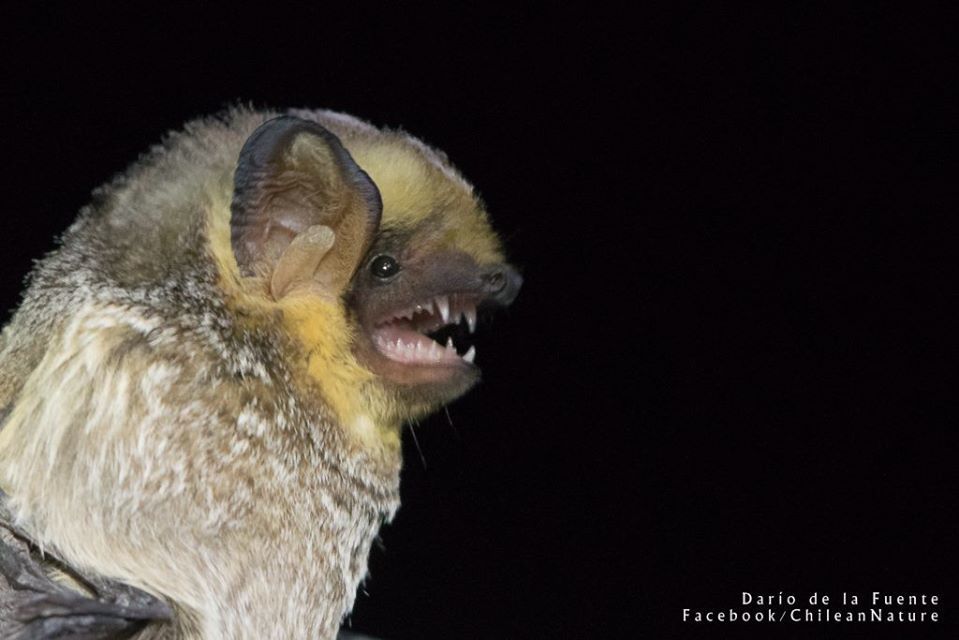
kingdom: Animalia
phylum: Chordata
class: Mammalia
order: Chiroptera
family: Vespertilionidae
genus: Aeorestes
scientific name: Aeorestes cinereus
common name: North american hoary bat
